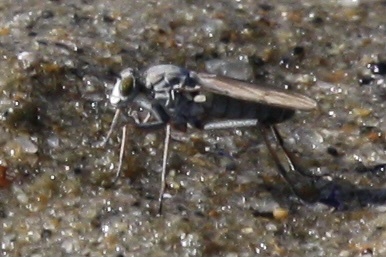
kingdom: Animalia
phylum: Arthropoda
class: Insecta
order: Diptera
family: Dolichopodidae
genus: Hypocharassus
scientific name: Hypocharassus pruinosus
